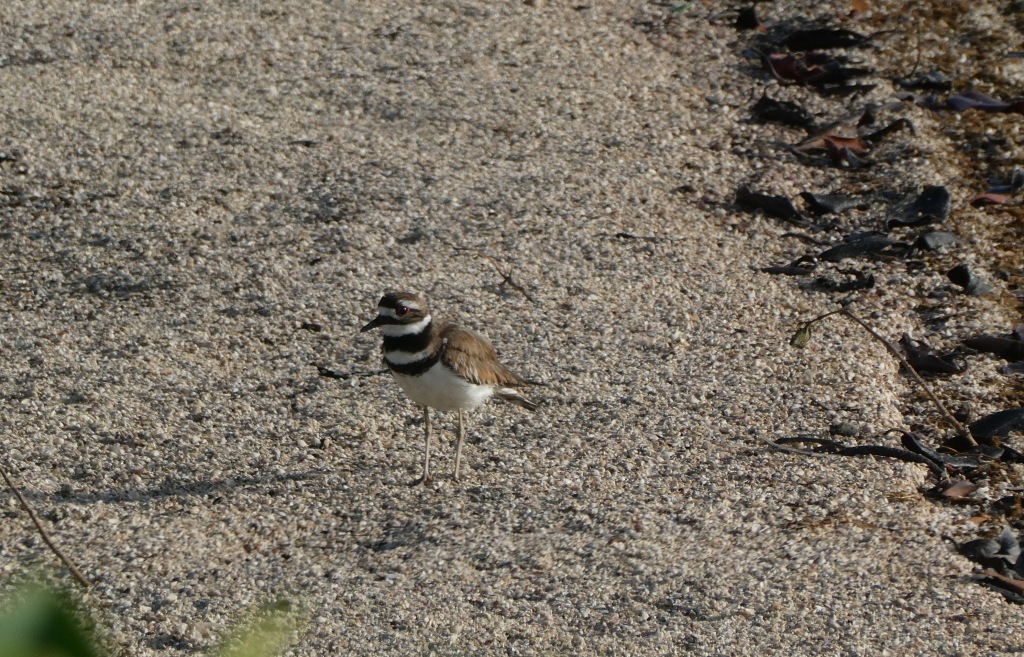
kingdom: Animalia
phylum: Chordata
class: Aves
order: Charadriiformes
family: Charadriidae
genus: Charadrius
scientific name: Charadrius vociferus
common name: Killdeer
